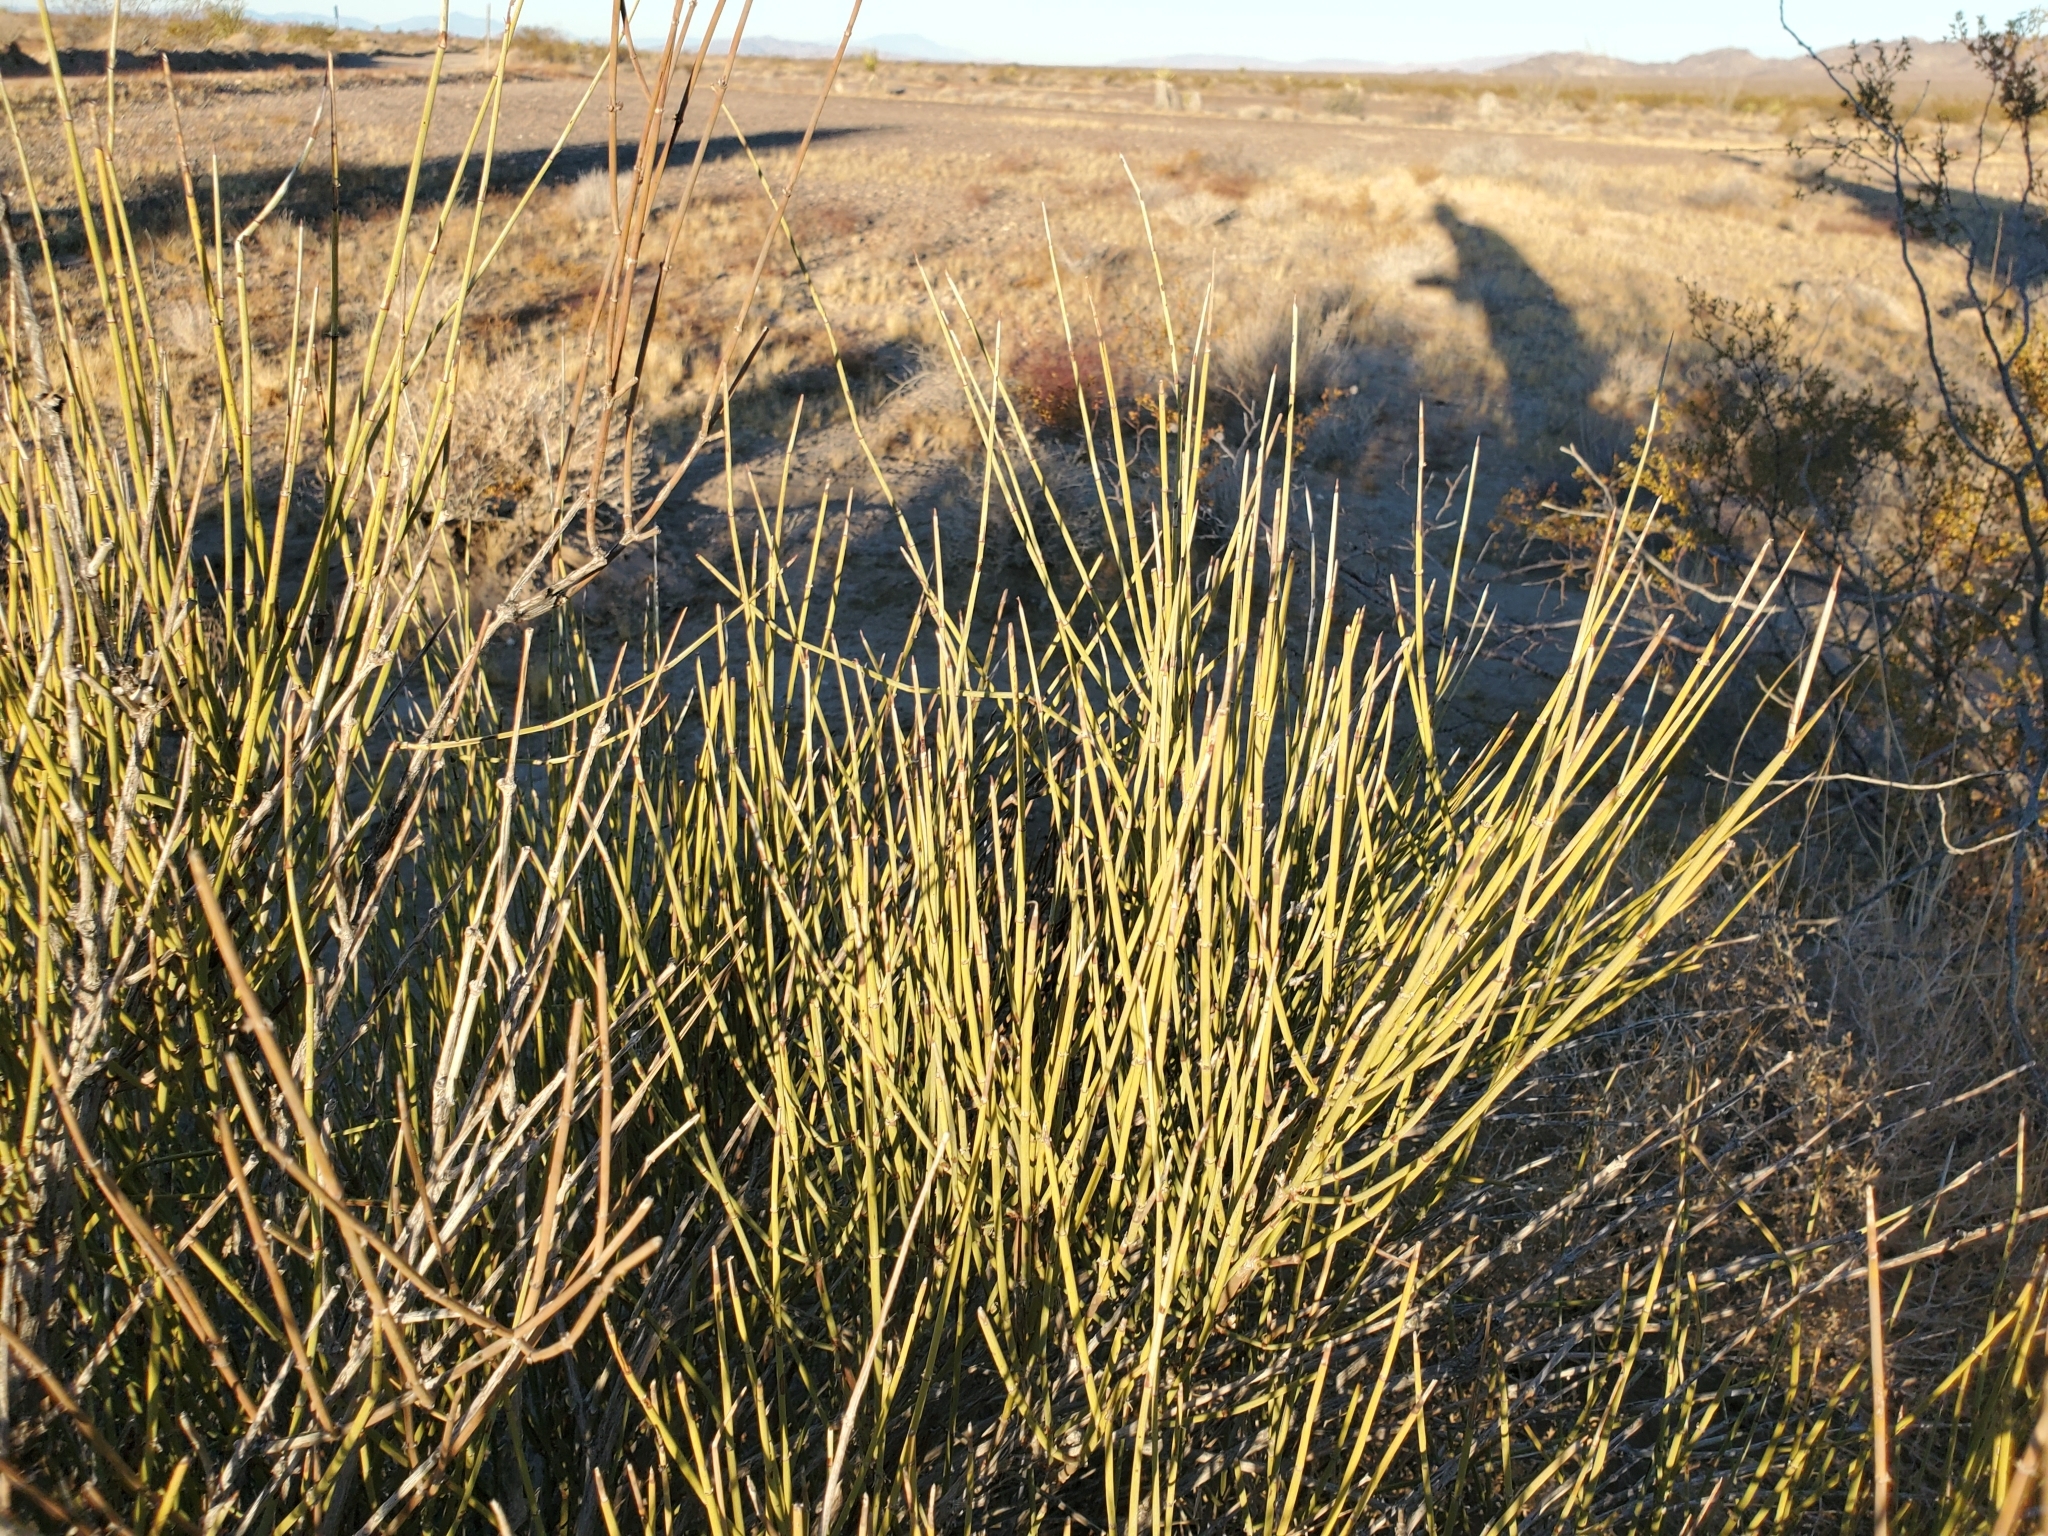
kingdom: Plantae
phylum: Tracheophyta
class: Gnetopsida
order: Ephedrales
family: Ephedraceae
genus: Ephedra
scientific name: Ephedra trifurca
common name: Mexican-tea
